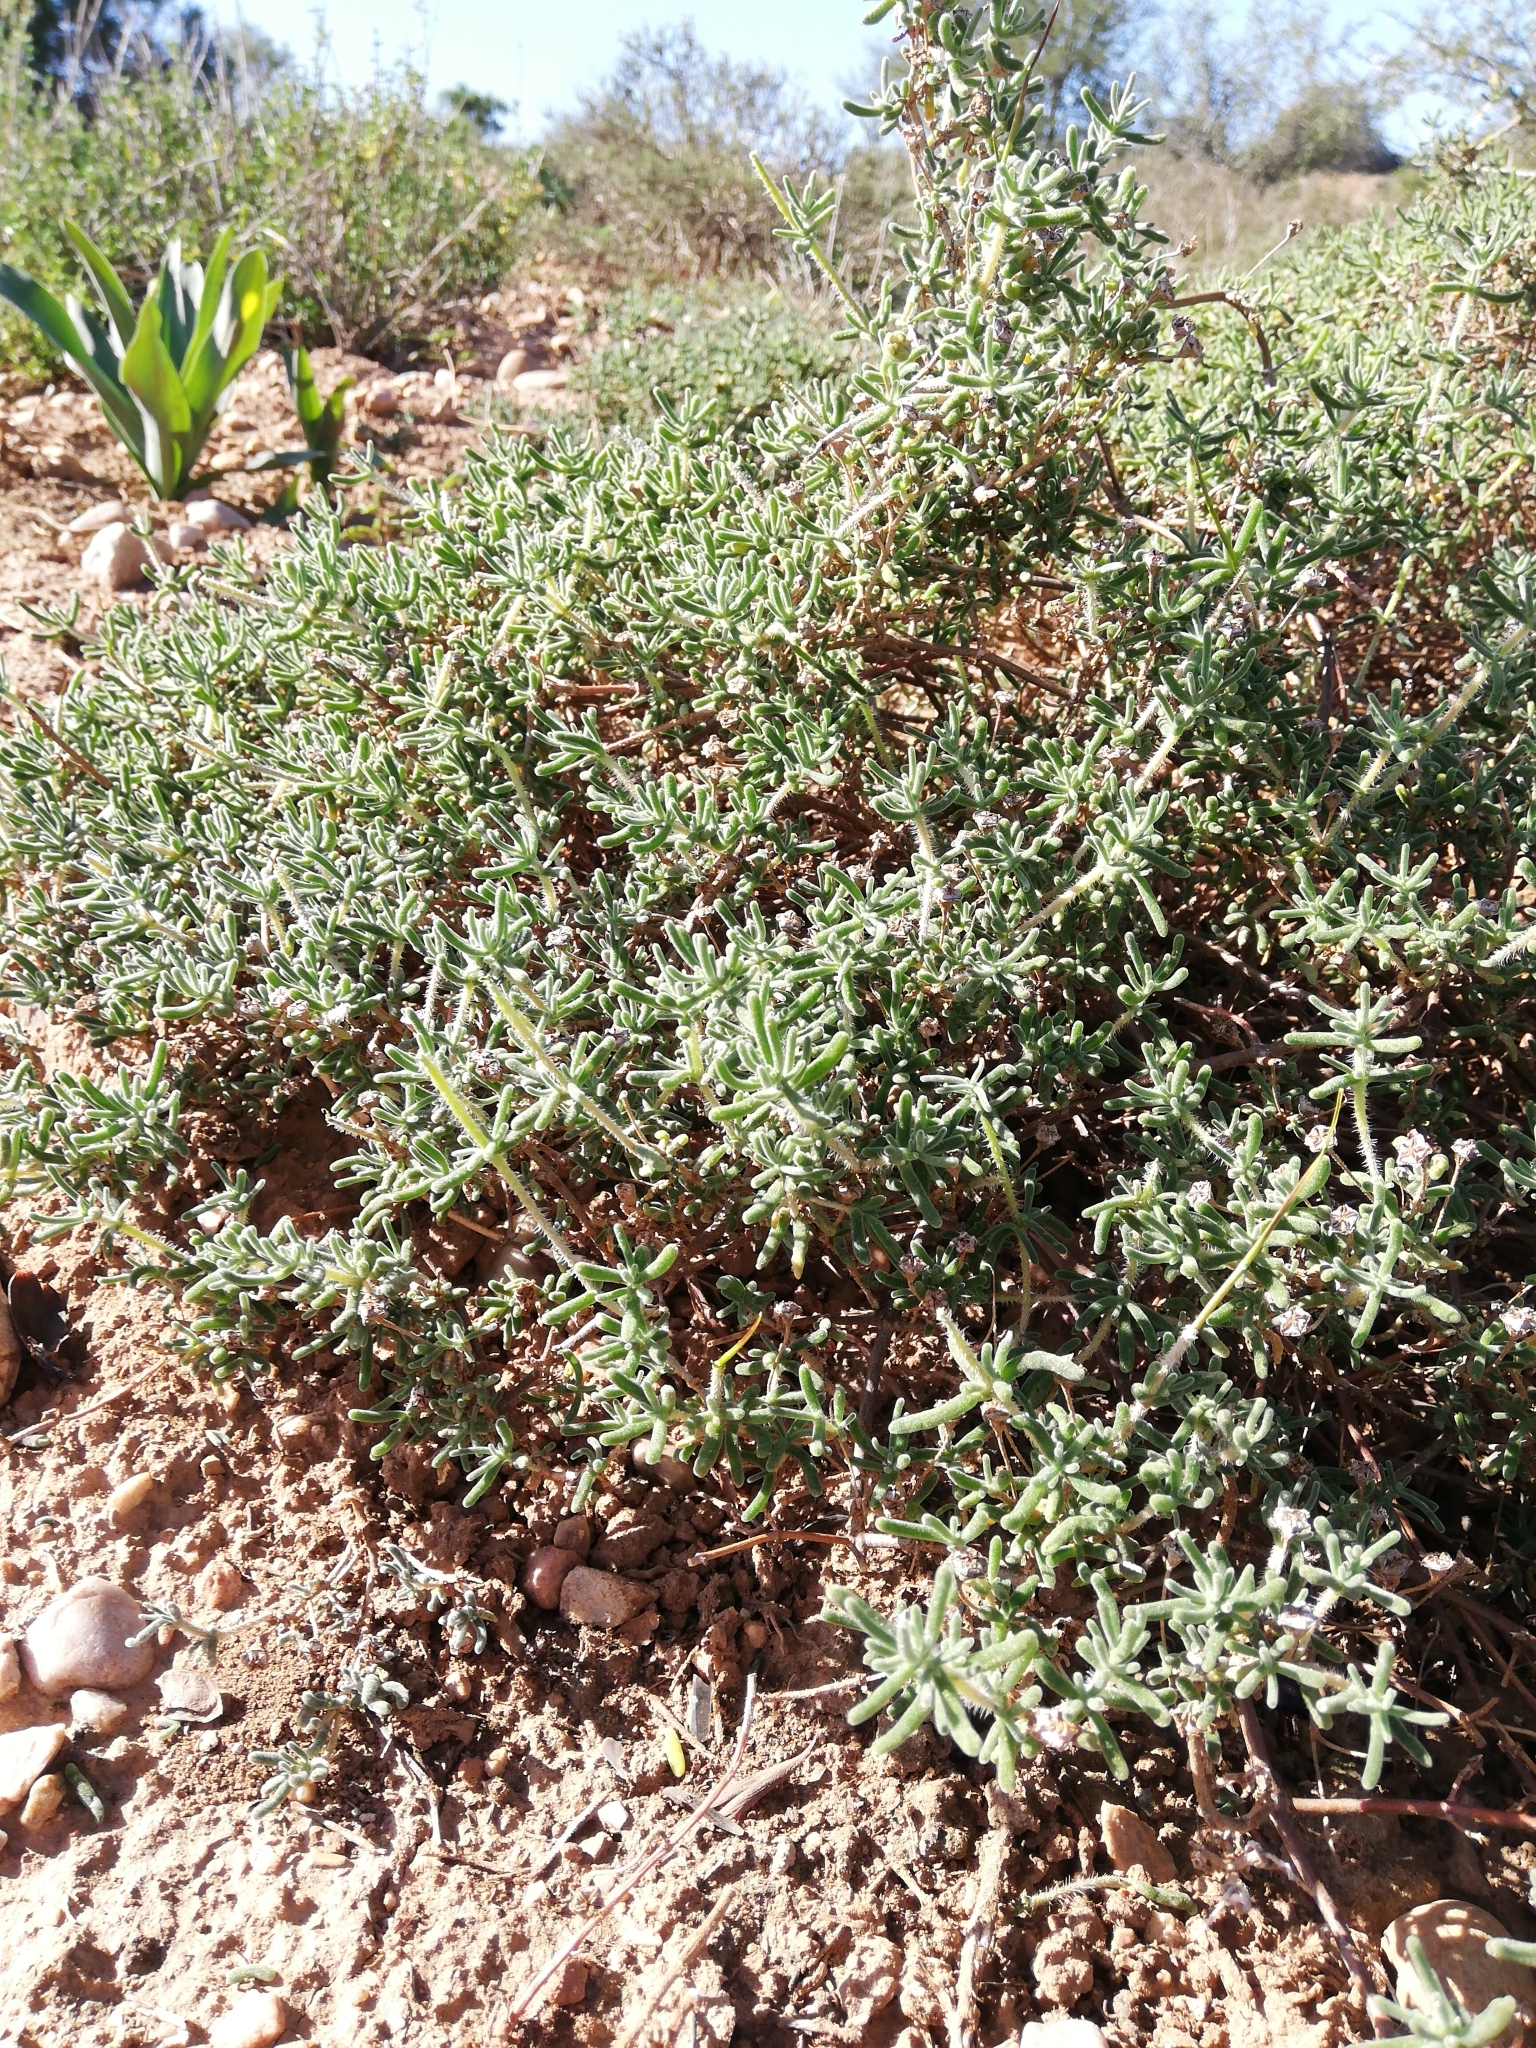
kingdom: Plantae
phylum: Tracheophyta
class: Magnoliopsida
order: Caryophyllales
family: Aizoaceae
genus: Drosanthemum
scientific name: Drosanthemum hispidum
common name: Hairy dewflower
